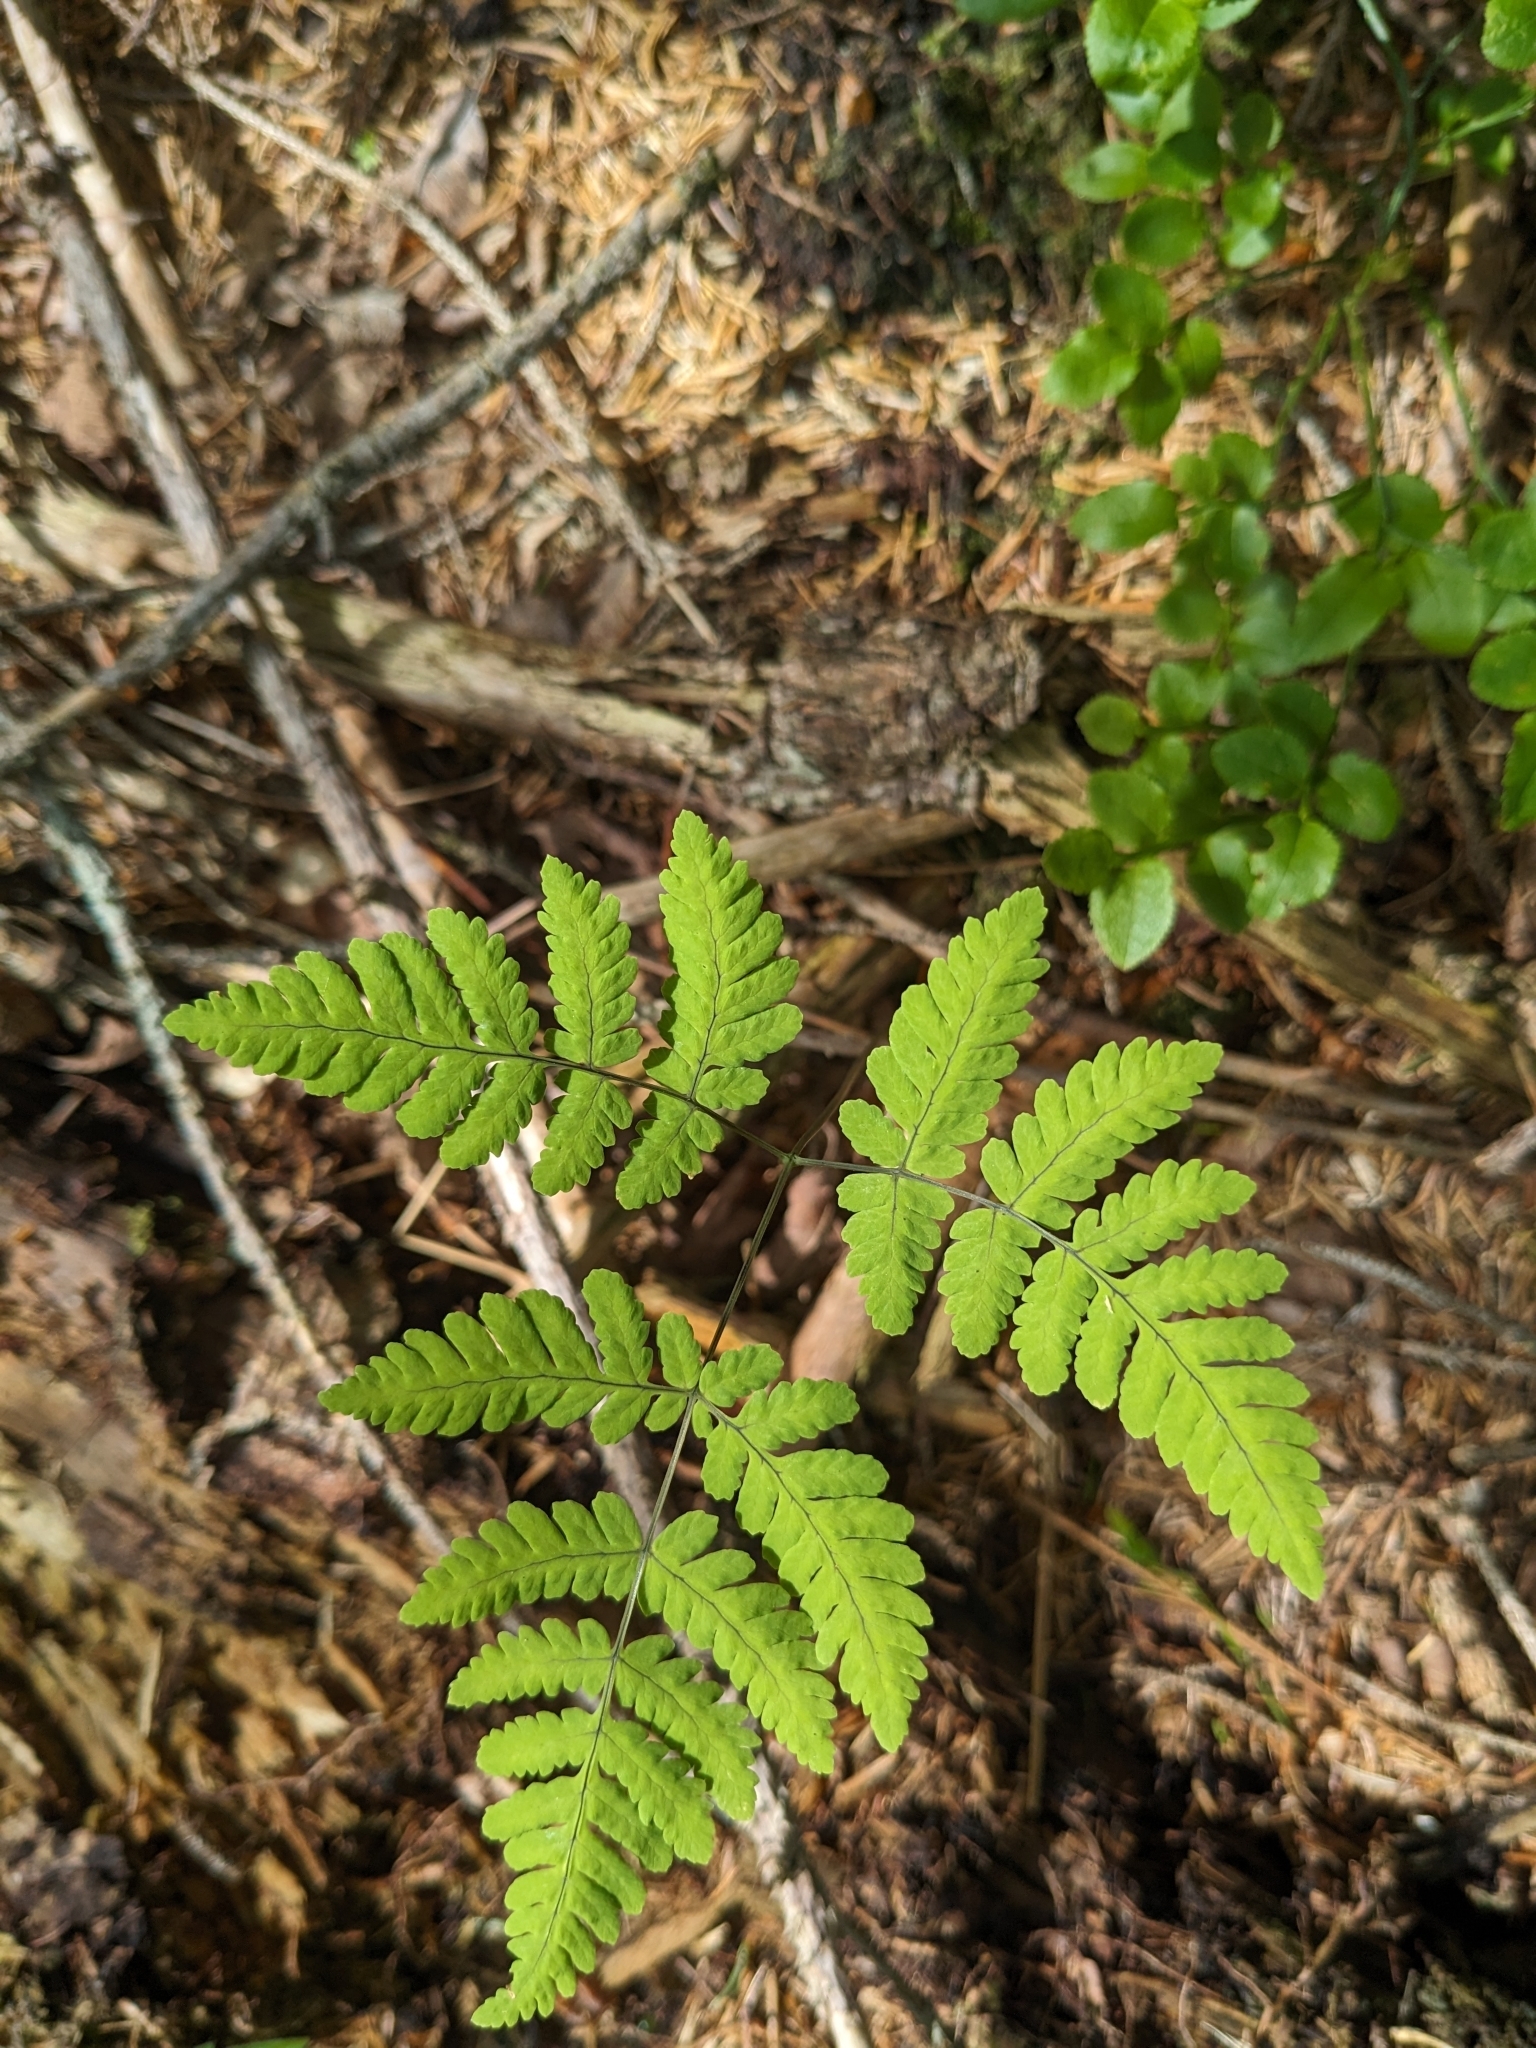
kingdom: Plantae
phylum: Tracheophyta
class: Polypodiopsida
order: Polypodiales
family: Cystopteridaceae
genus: Gymnocarpium
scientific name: Gymnocarpium dryopteris
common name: Oak fern
